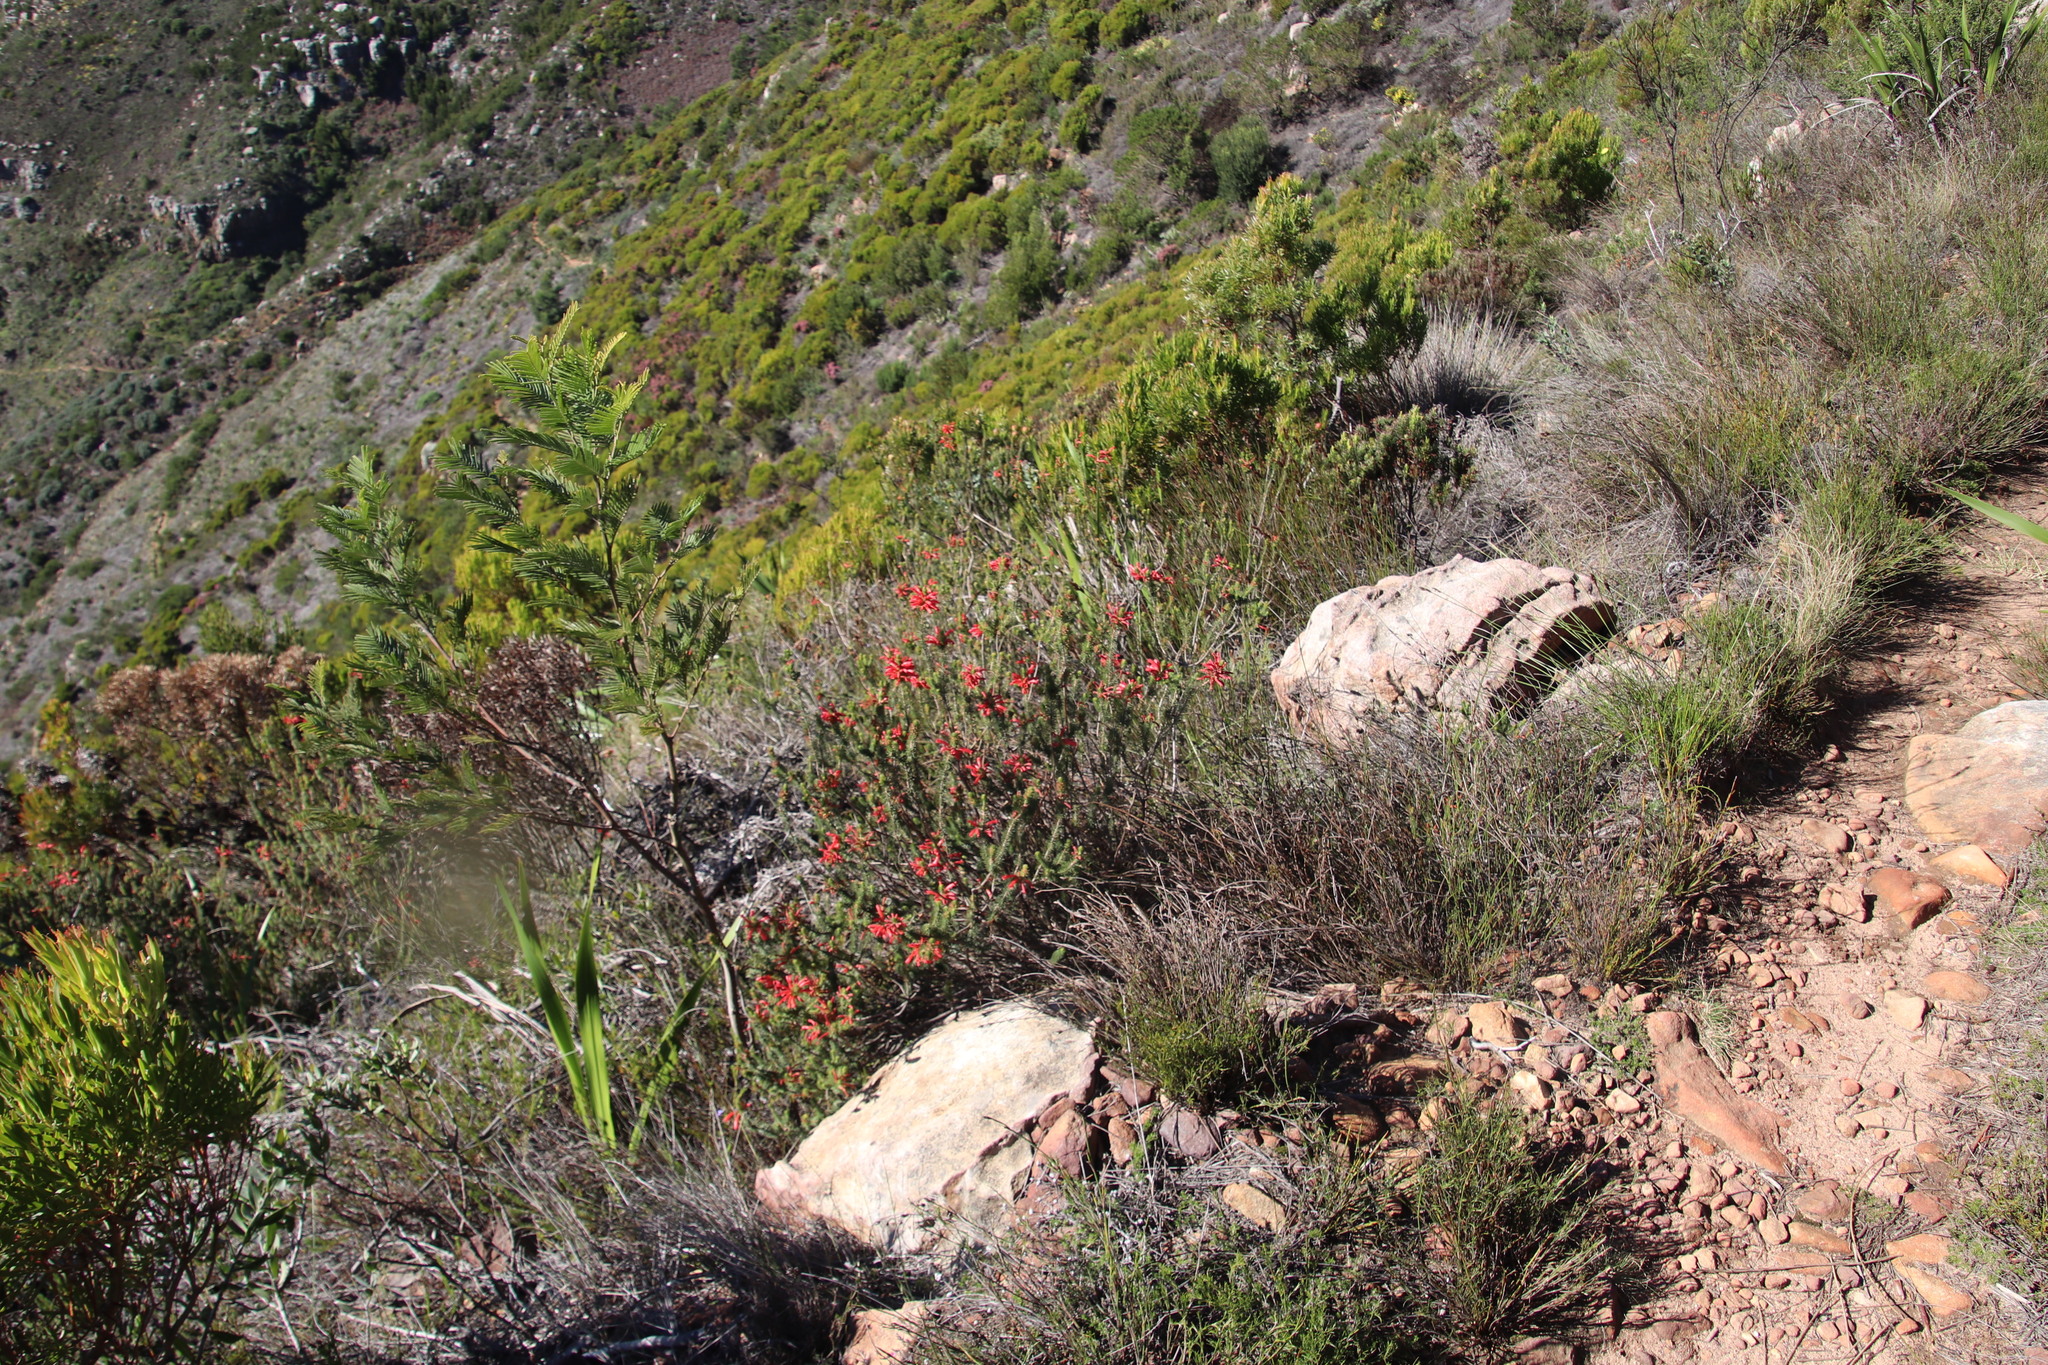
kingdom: Plantae
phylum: Tracheophyta
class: Magnoliopsida
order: Ericales
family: Ericaceae
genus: Erica
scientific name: Erica abietina
